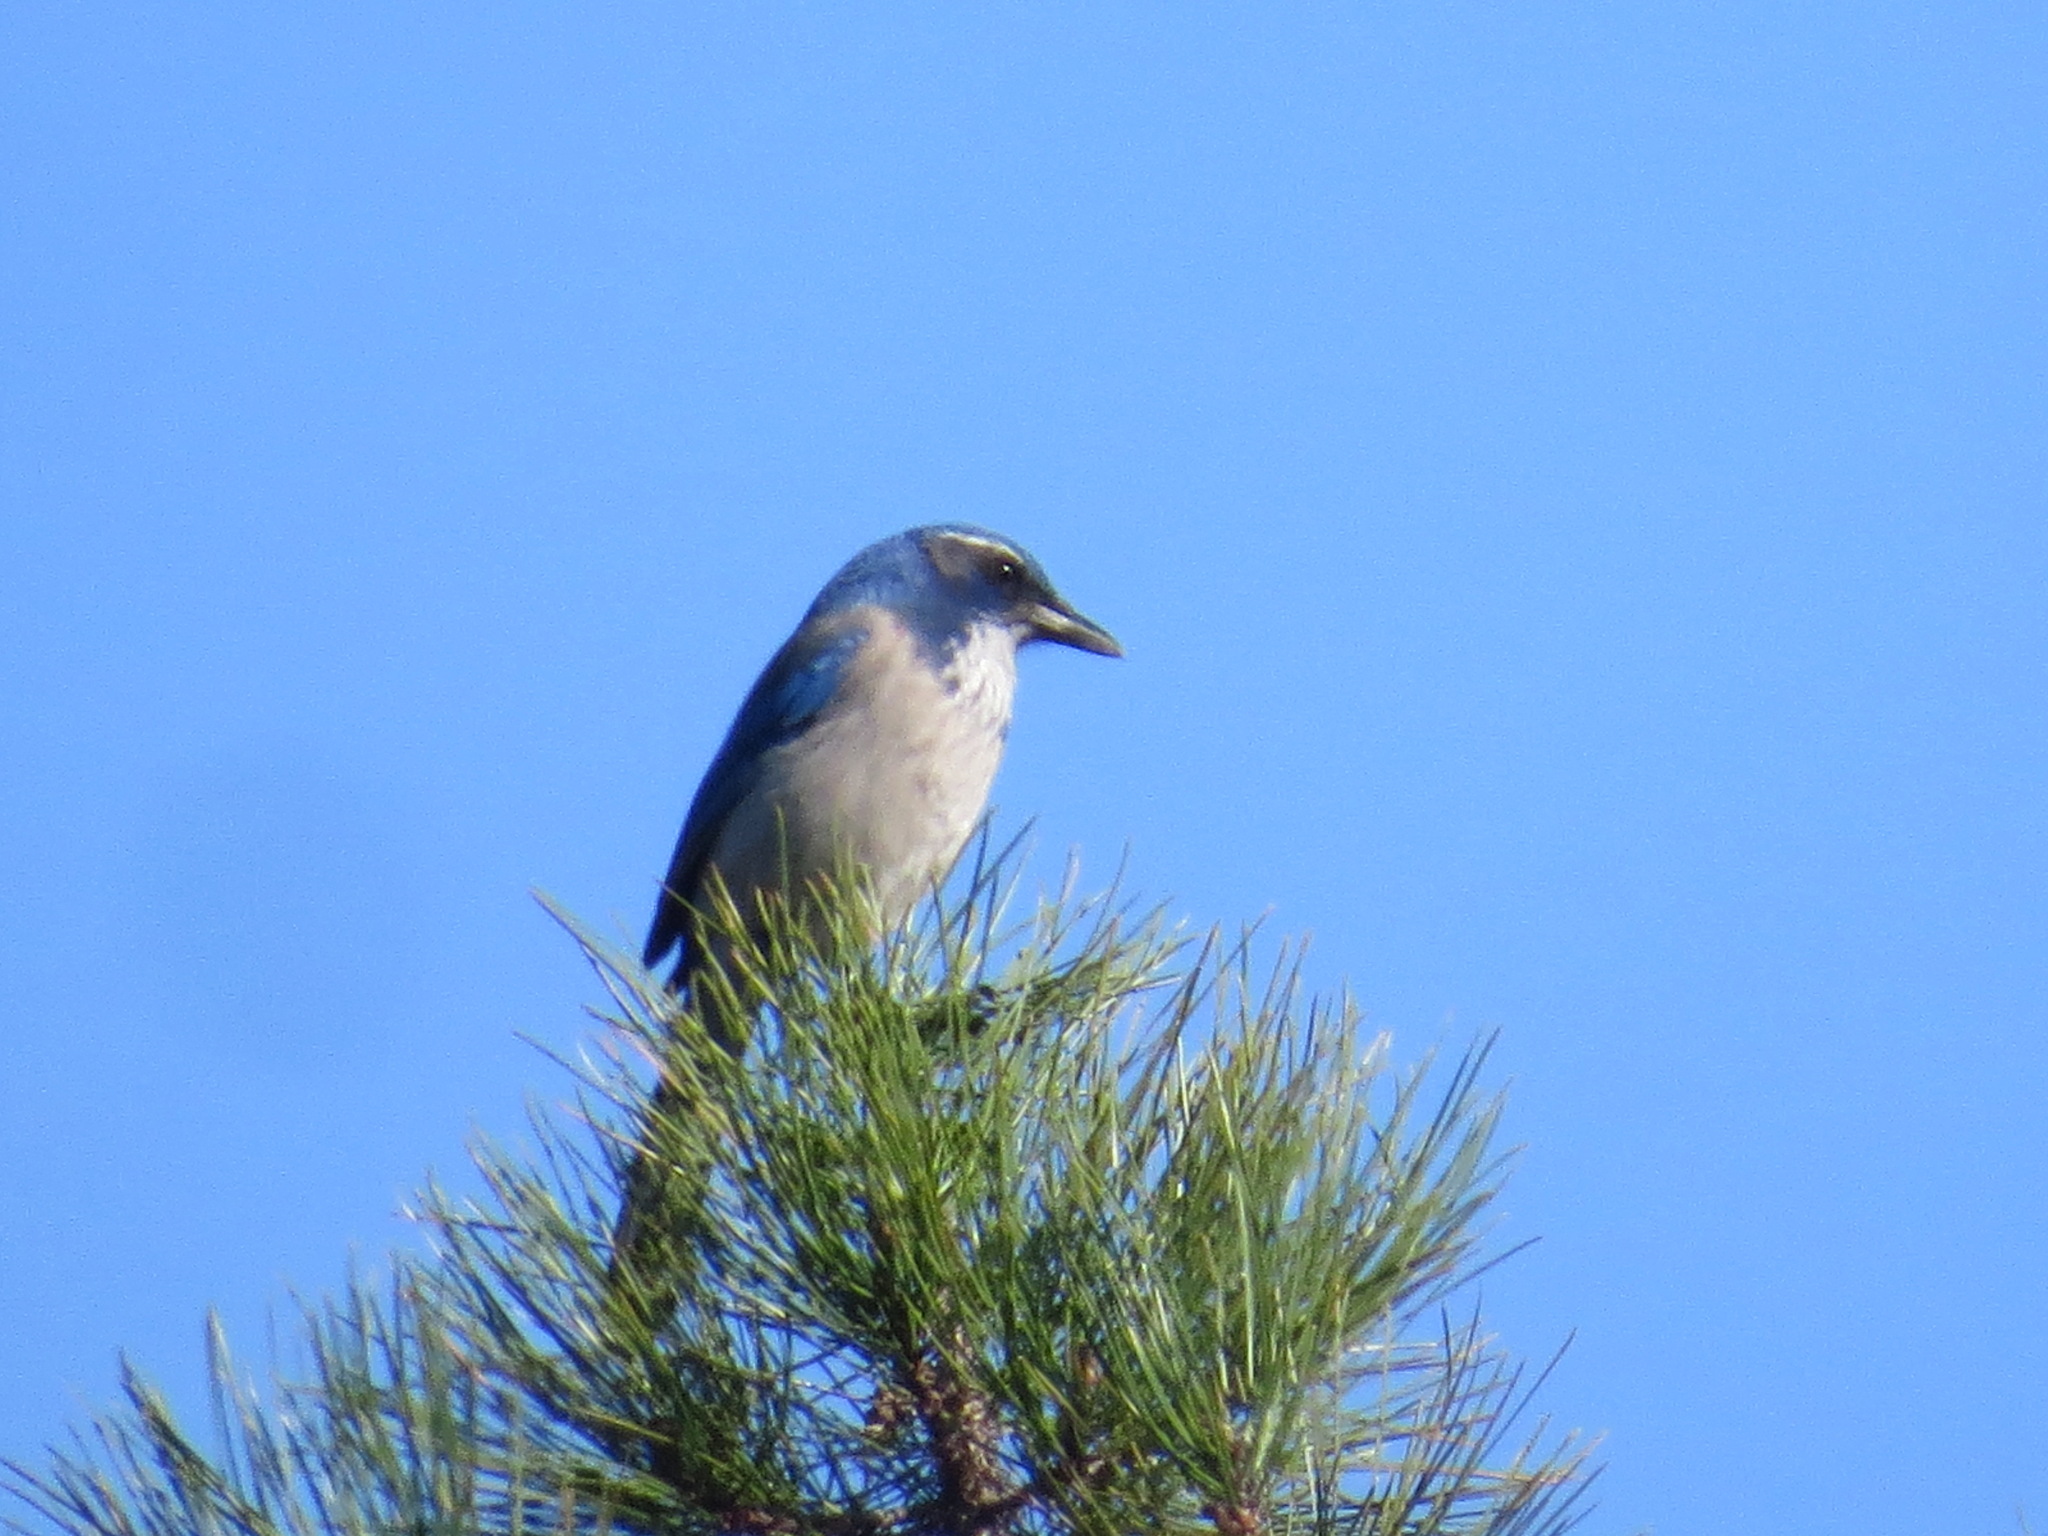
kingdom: Animalia
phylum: Chordata
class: Aves
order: Passeriformes
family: Corvidae
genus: Aphelocoma
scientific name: Aphelocoma californica
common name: California scrub-jay
